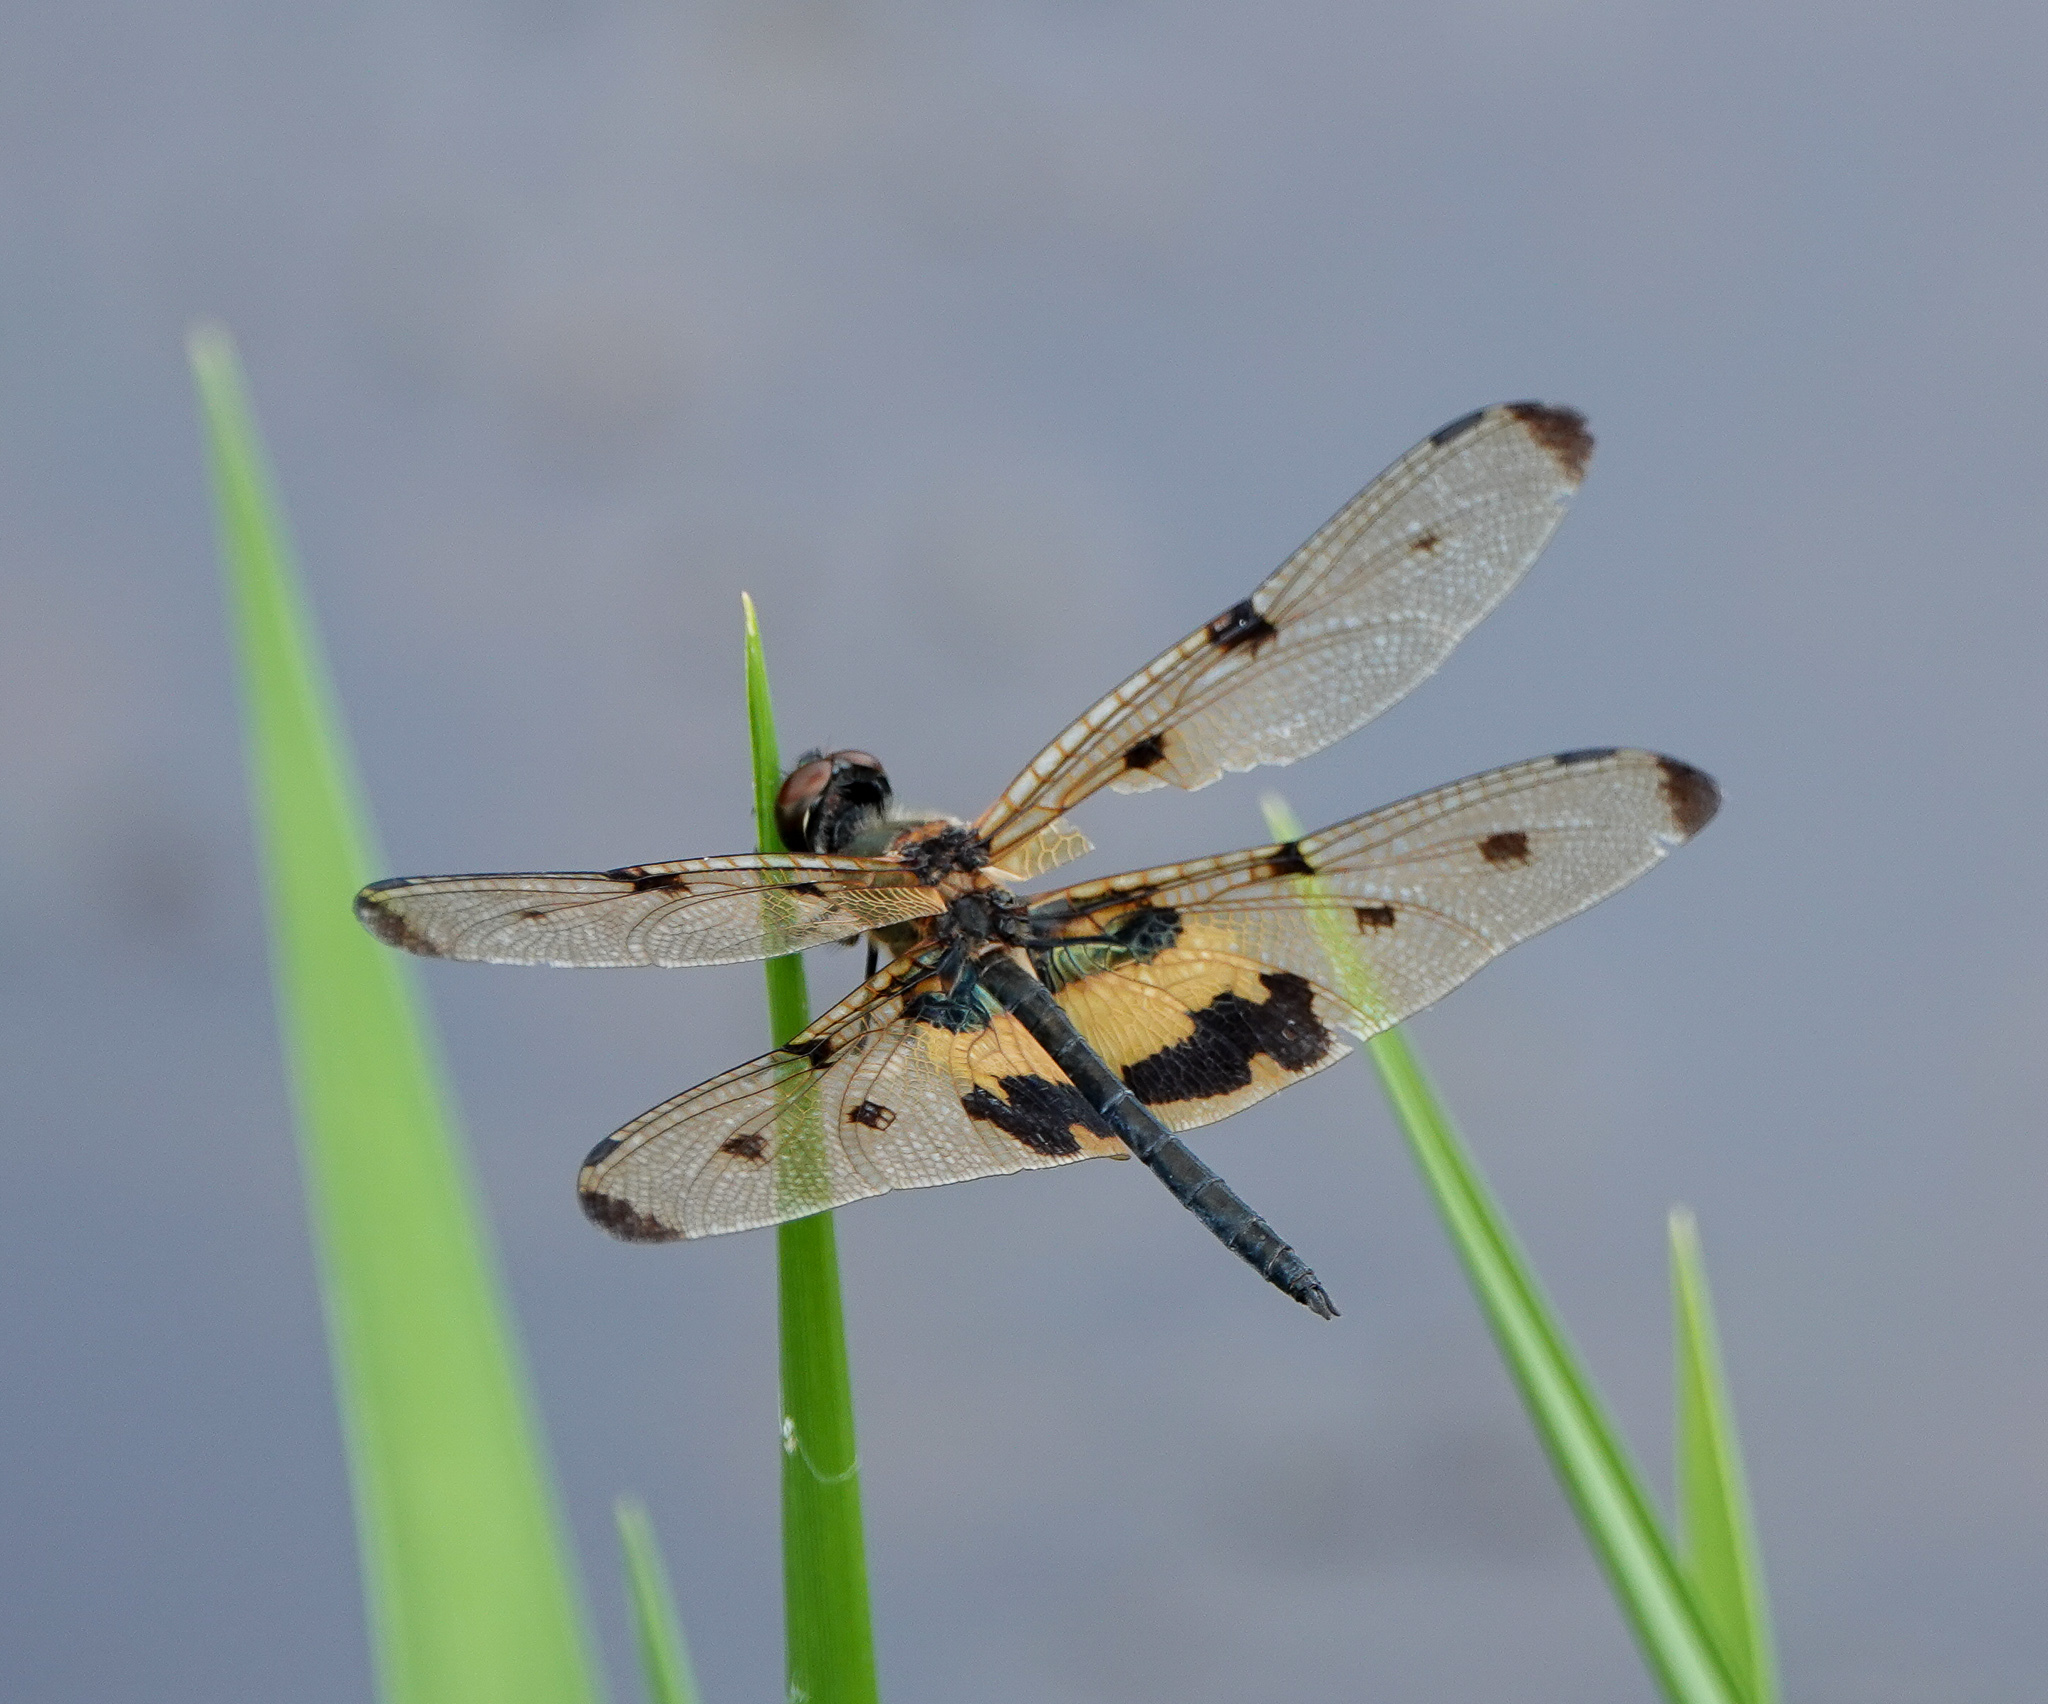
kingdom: Animalia
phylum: Arthropoda
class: Insecta
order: Odonata
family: Libellulidae
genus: Rhyothemis
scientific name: Rhyothemis variegata
